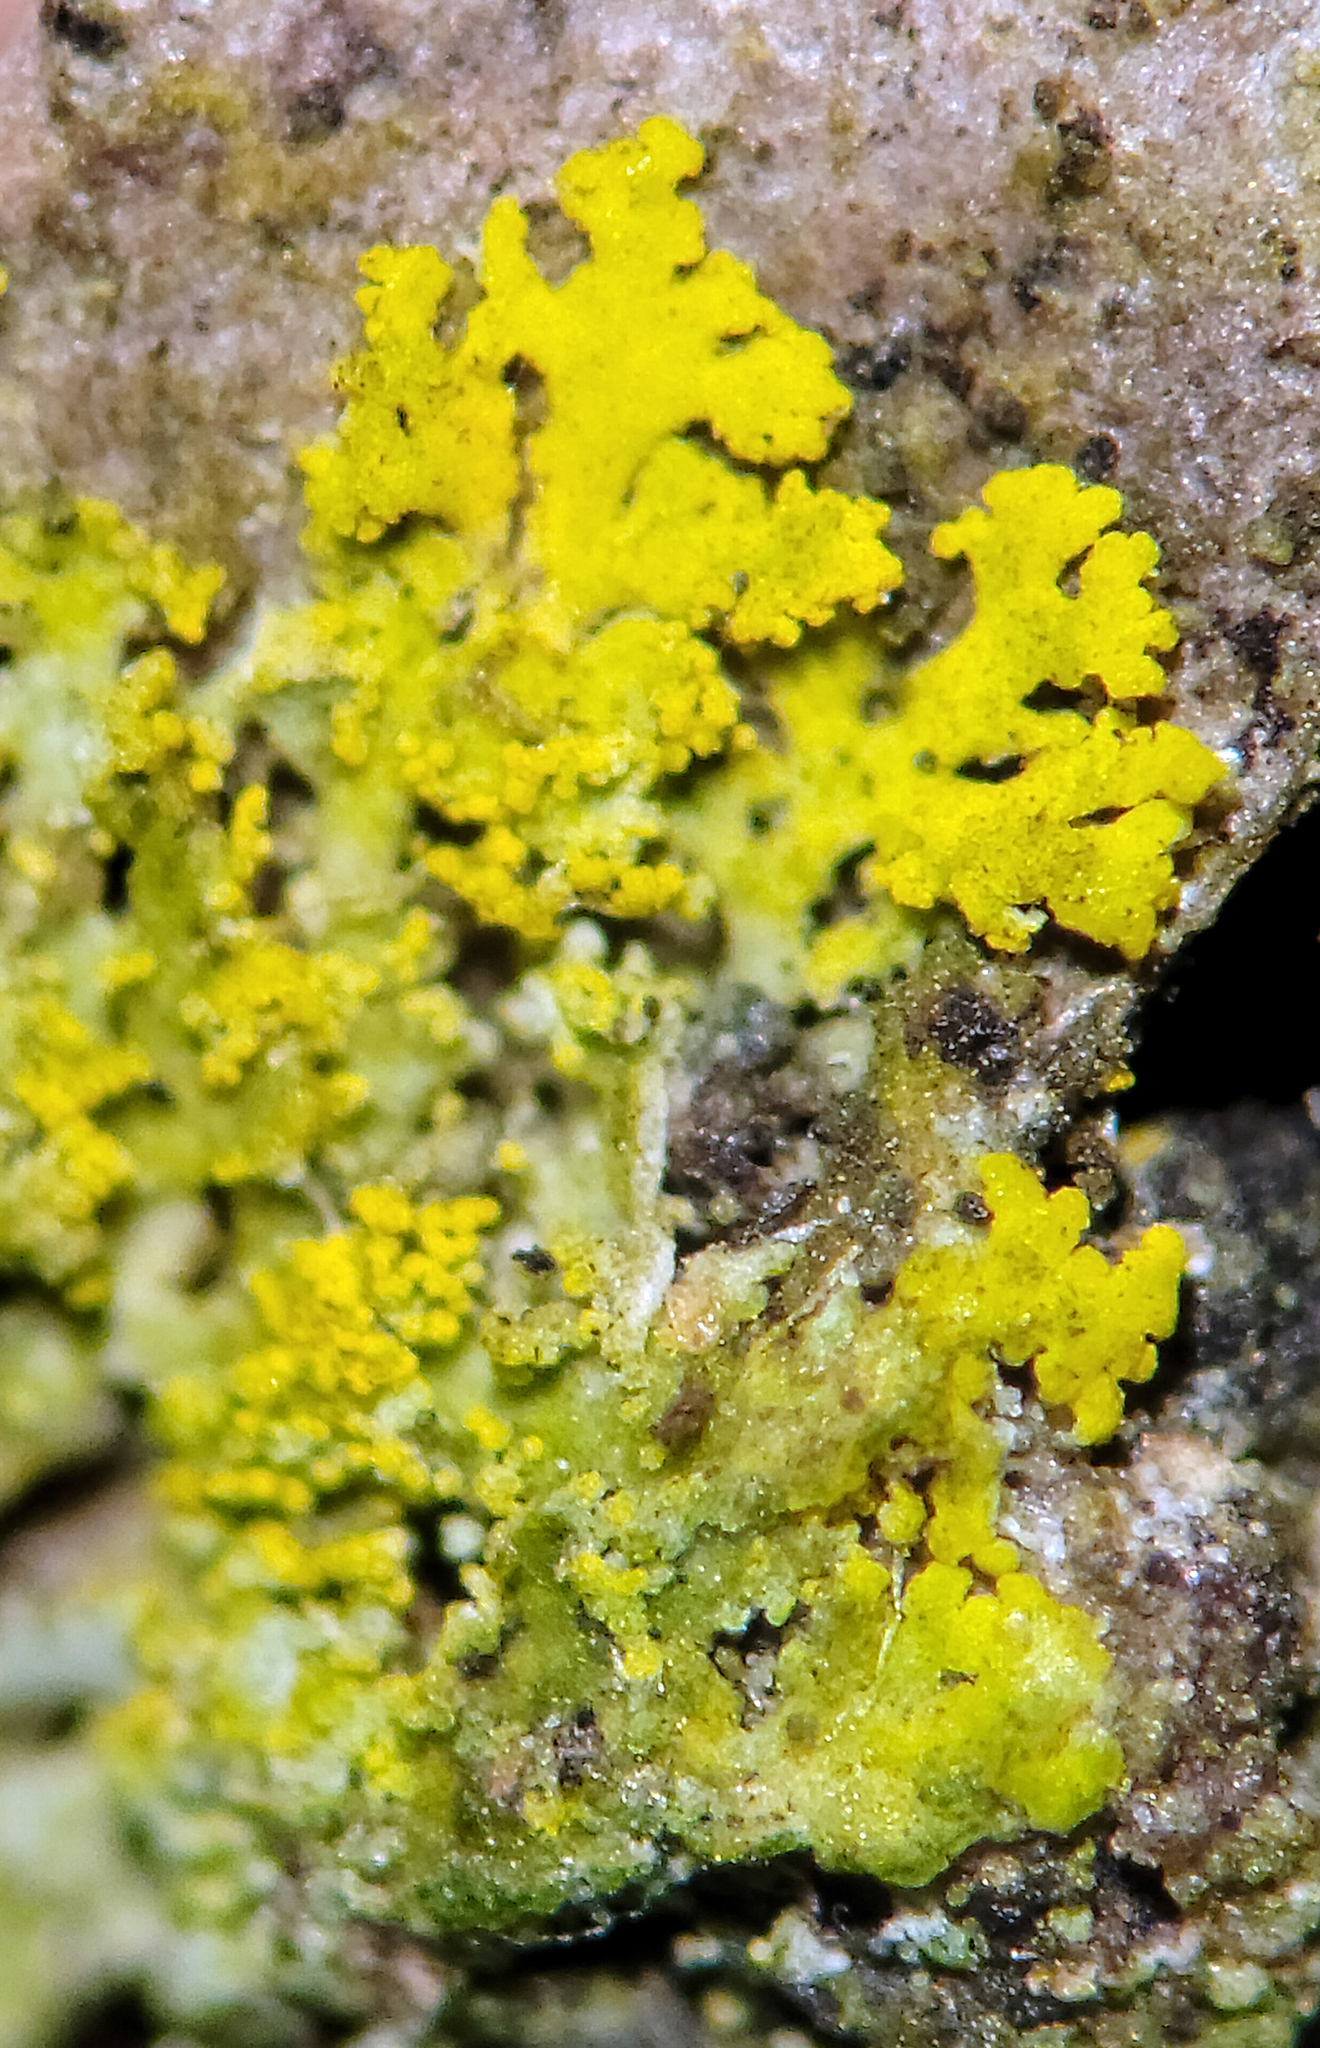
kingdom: Fungi
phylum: Ascomycota
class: Candelariomycetes
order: Candelariales
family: Candelariaceae
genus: Candelaria
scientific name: Candelaria concolor
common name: Candleflame lichen
